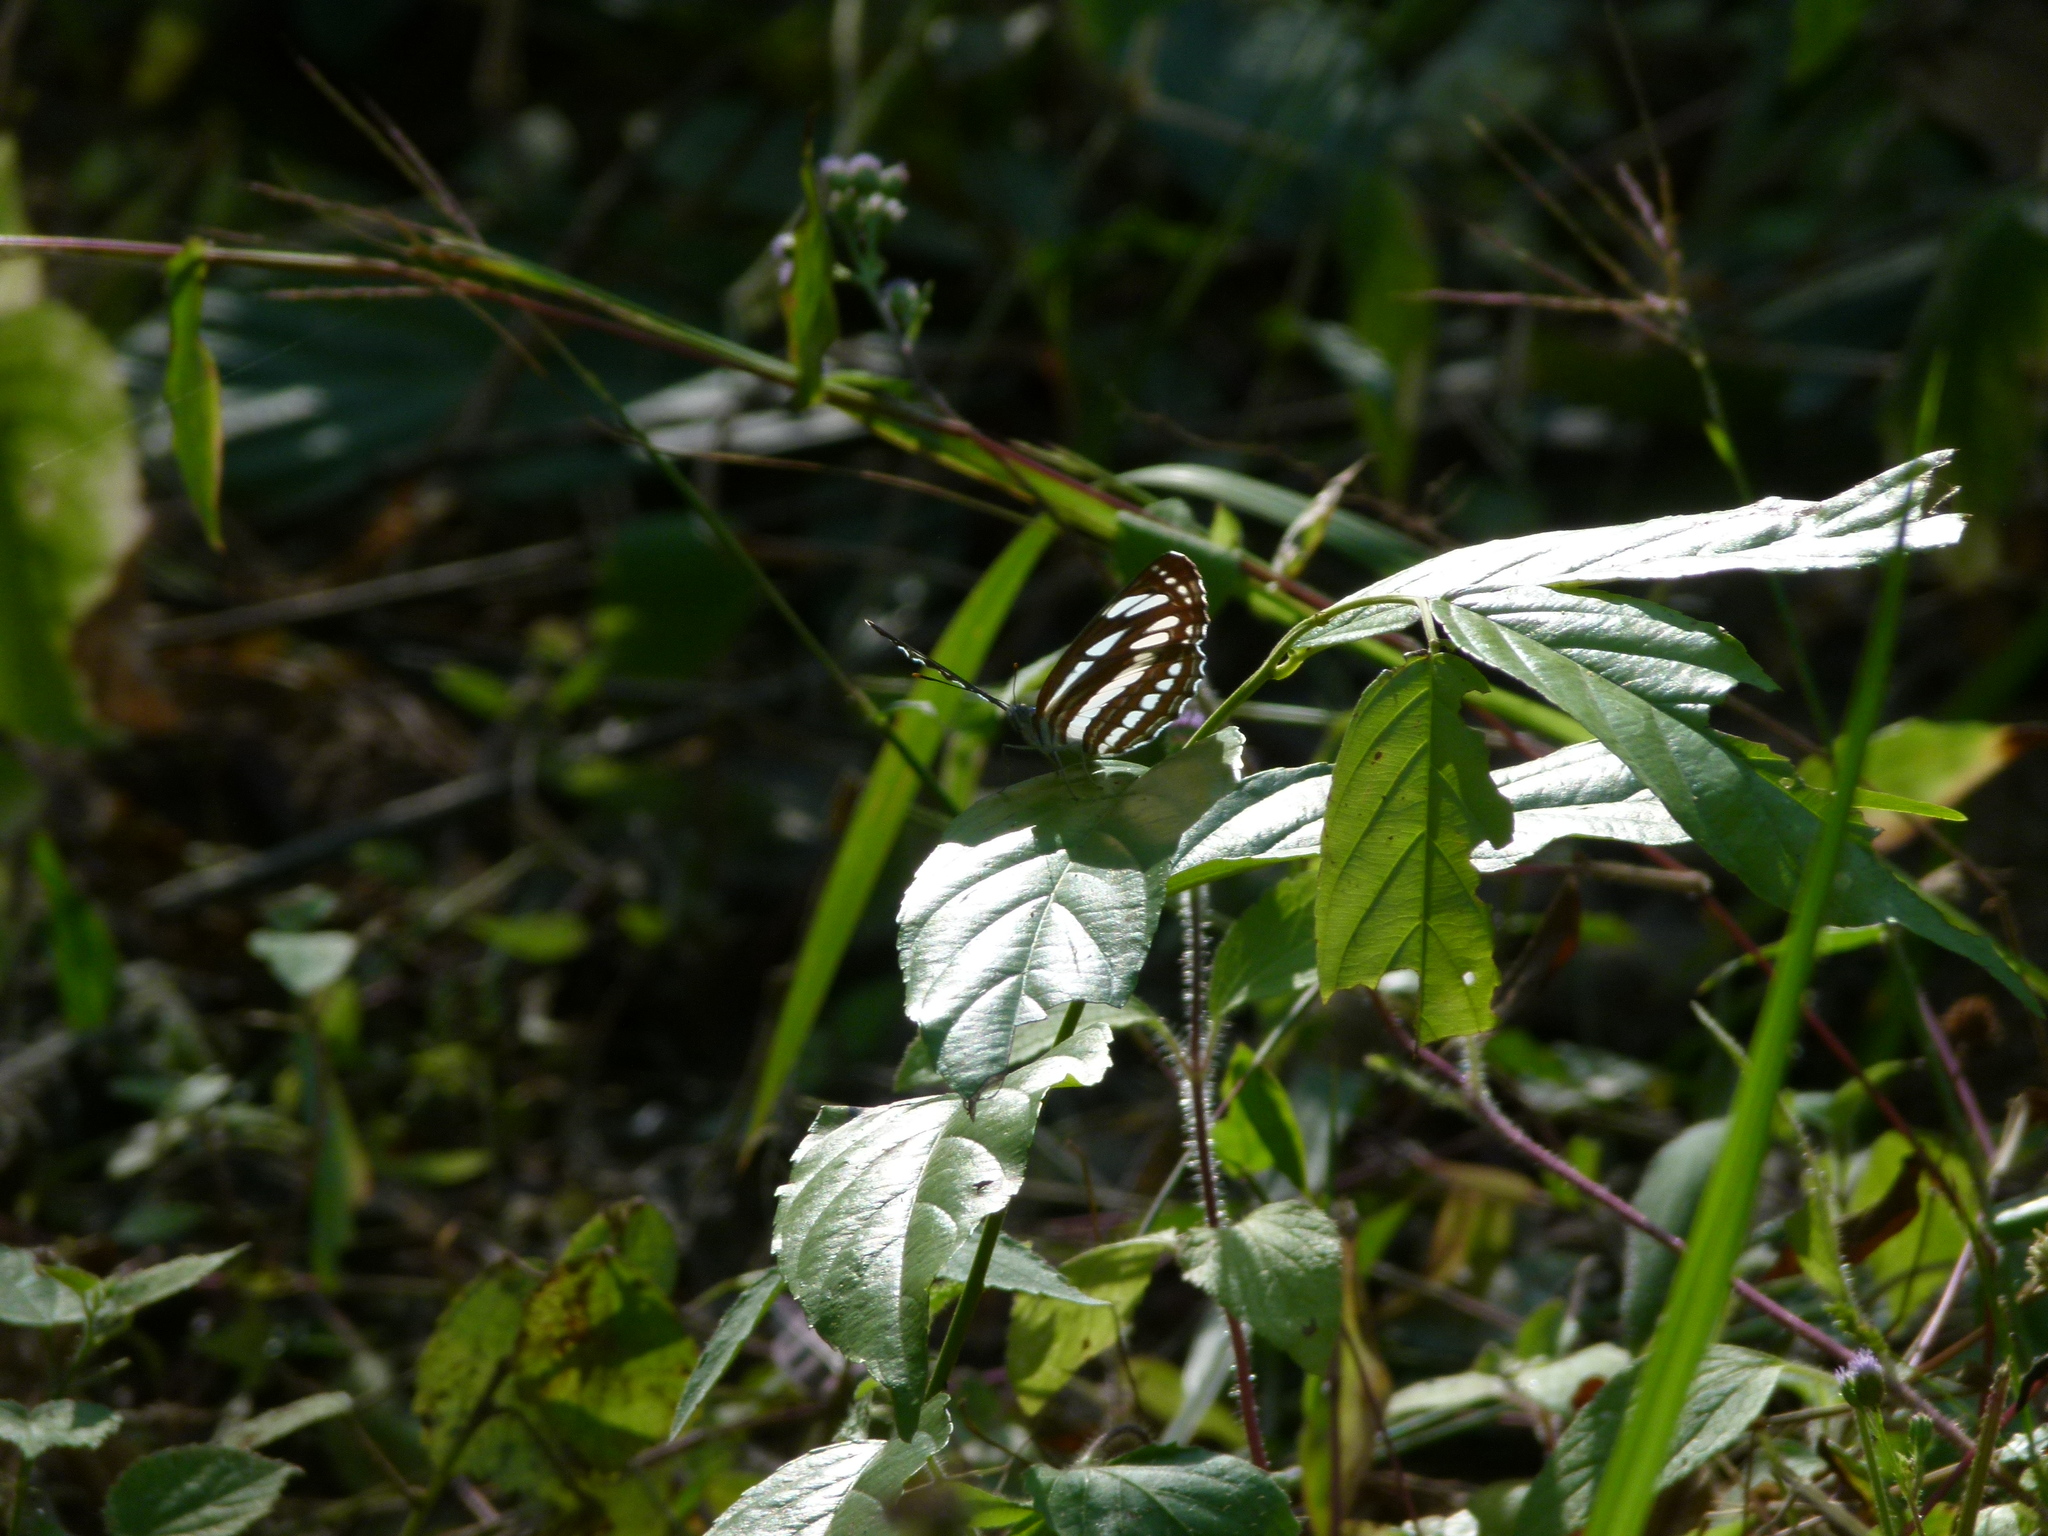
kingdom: Animalia
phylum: Arthropoda
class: Insecta
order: Lepidoptera
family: Nymphalidae
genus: Neptis
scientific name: Neptis hylas
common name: Common sailer
